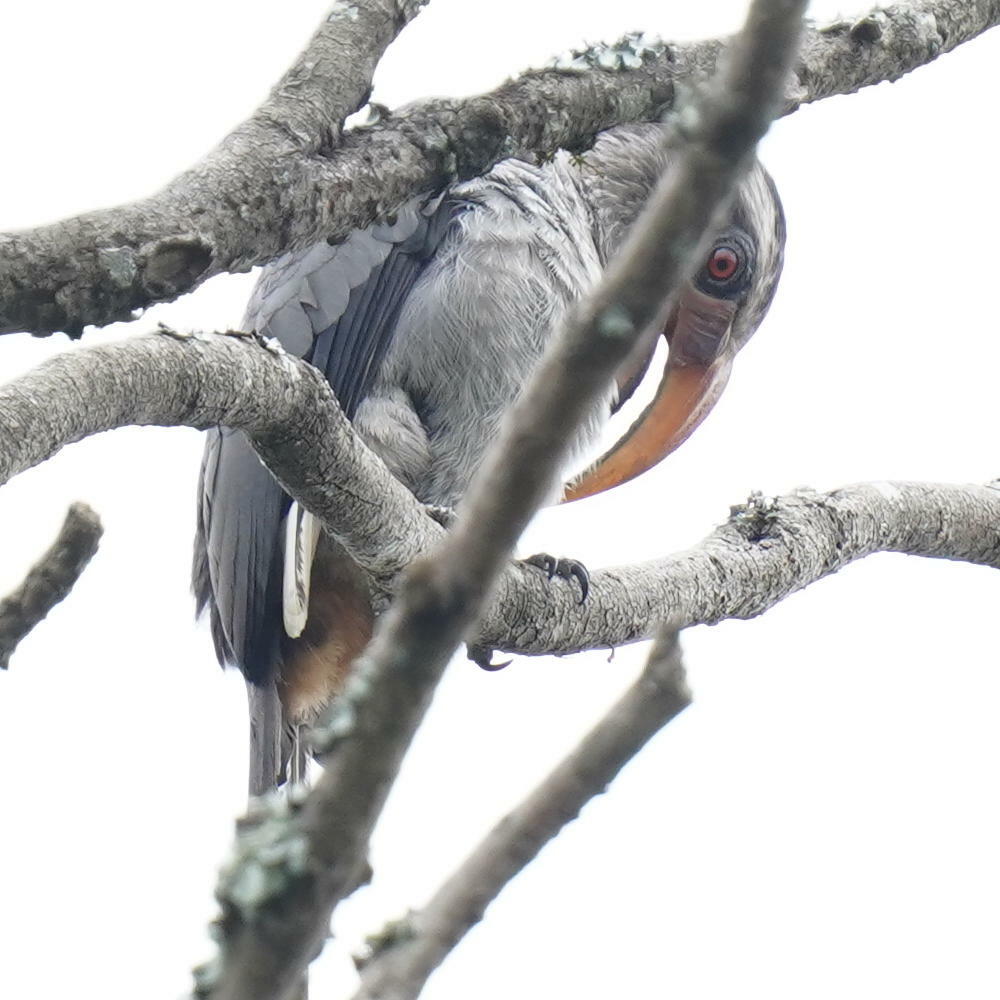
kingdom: Animalia
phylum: Chordata
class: Aves
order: Bucerotiformes
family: Bucerotidae
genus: Ocyceros
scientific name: Ocyceros griseus
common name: Malabar grey hornbill
